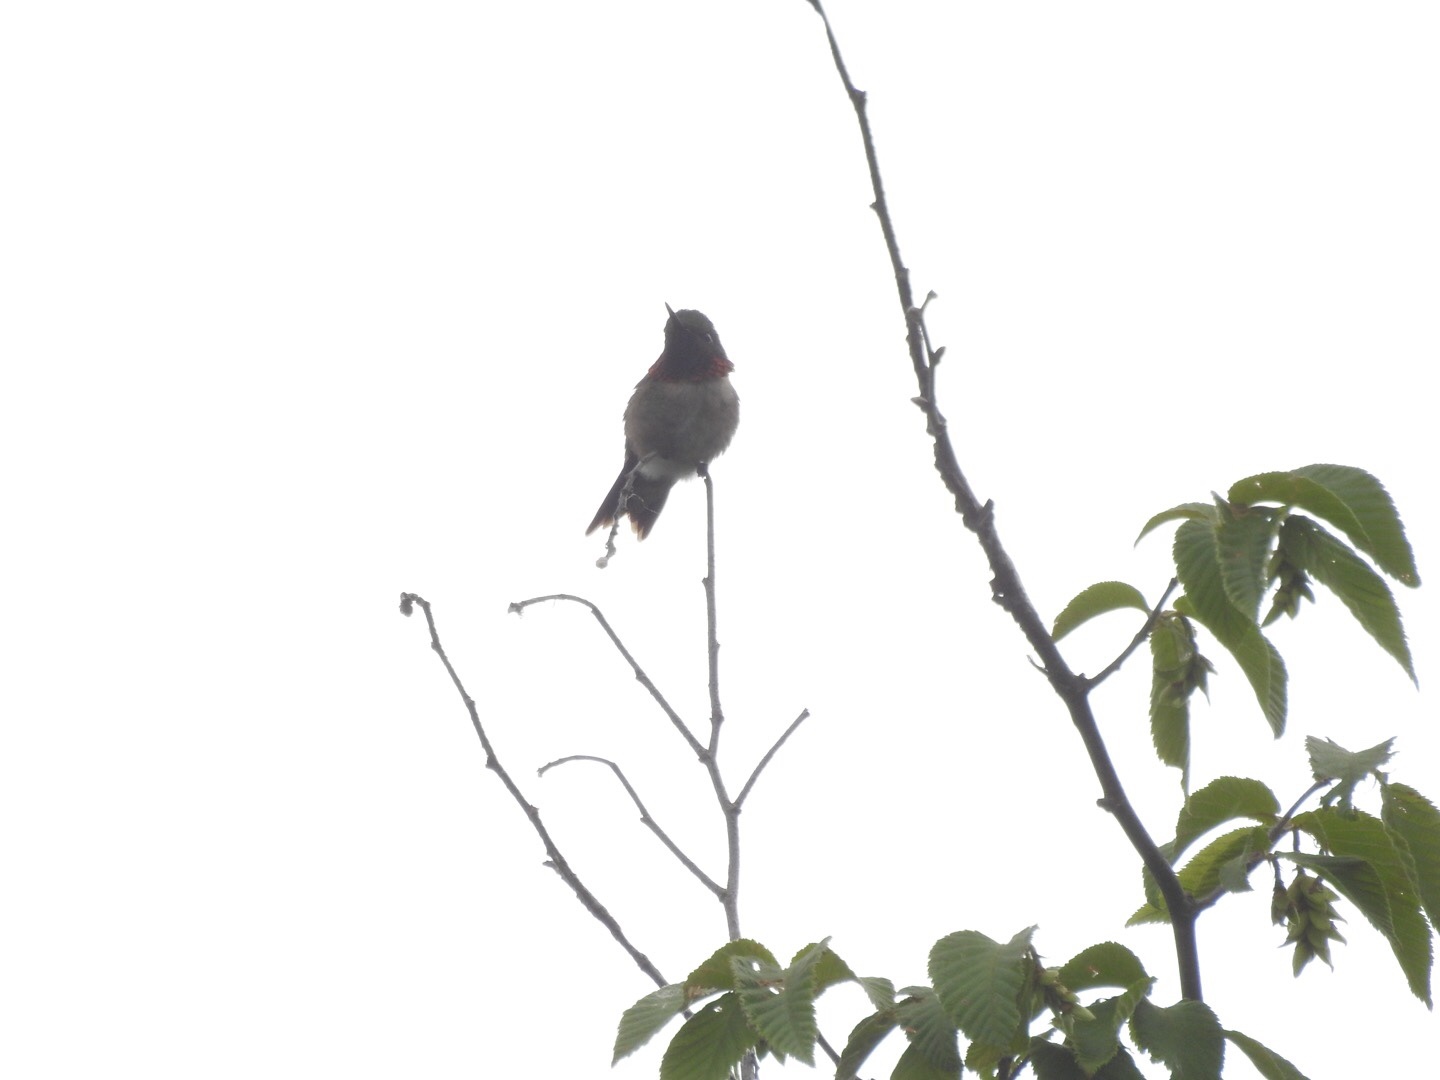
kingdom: Animalia
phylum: Chordata
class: Aves
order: Apodiformes
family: Trochilidae
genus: Archilochus
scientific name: Archilochus colubris
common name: Ruby-throated hummingbird
